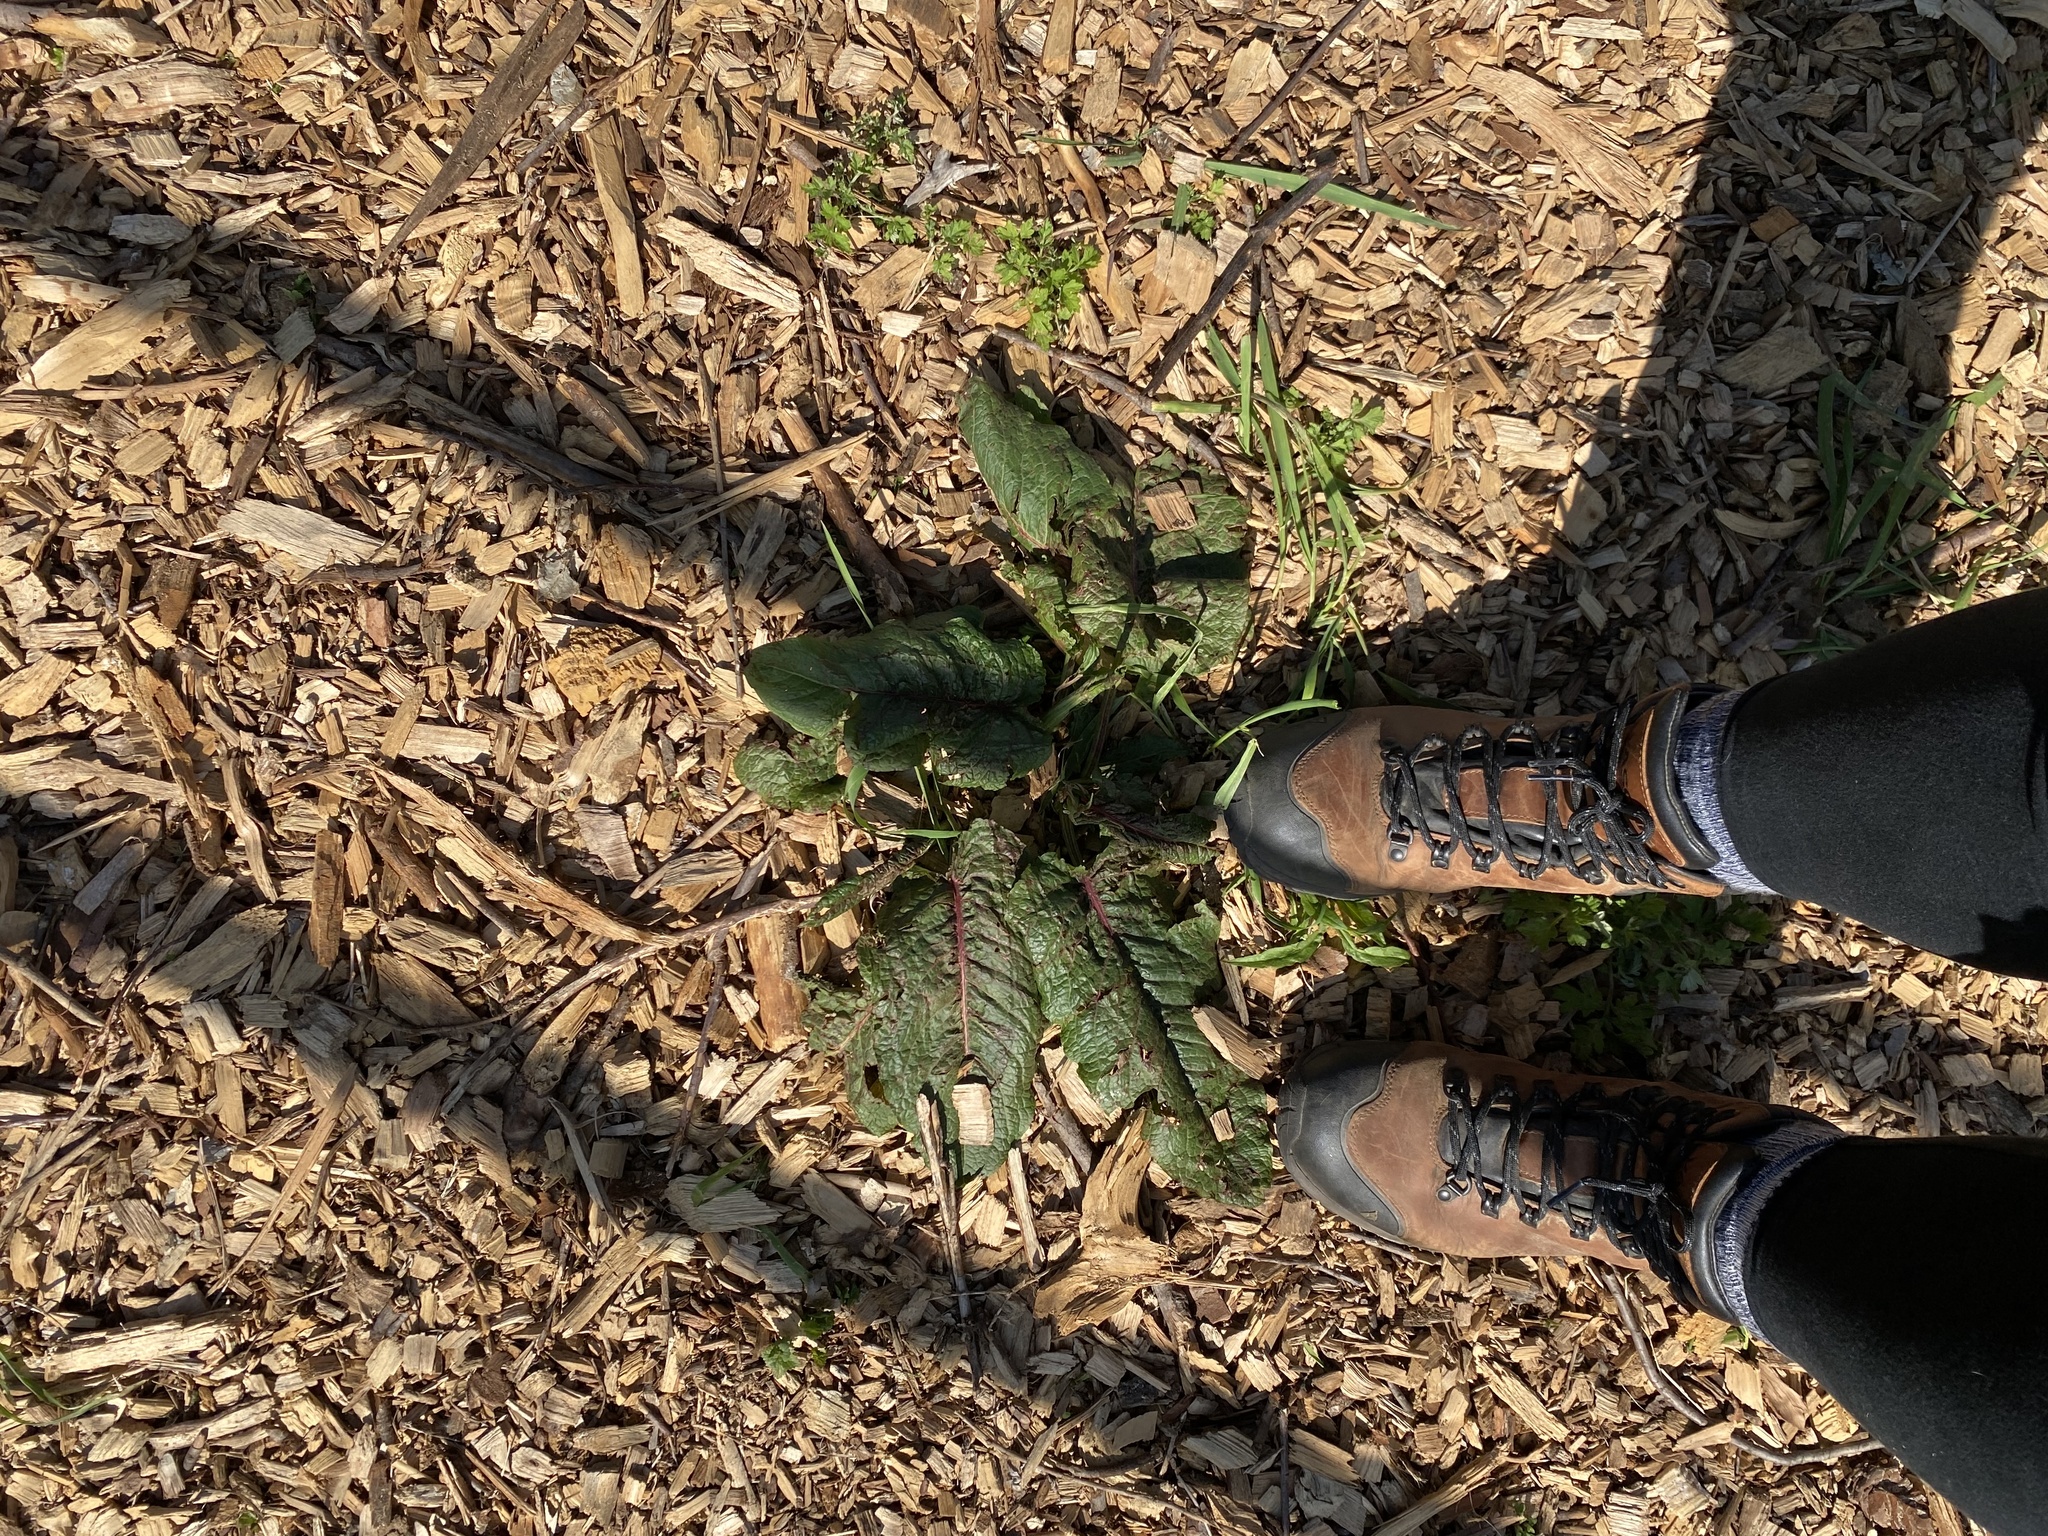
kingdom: Plantae
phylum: Tracheophyta
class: Magnoliopsida
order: Caryophyllales
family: Polygonaceae
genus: Rumex
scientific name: Rumex obtusifolius
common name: Bitter dock
